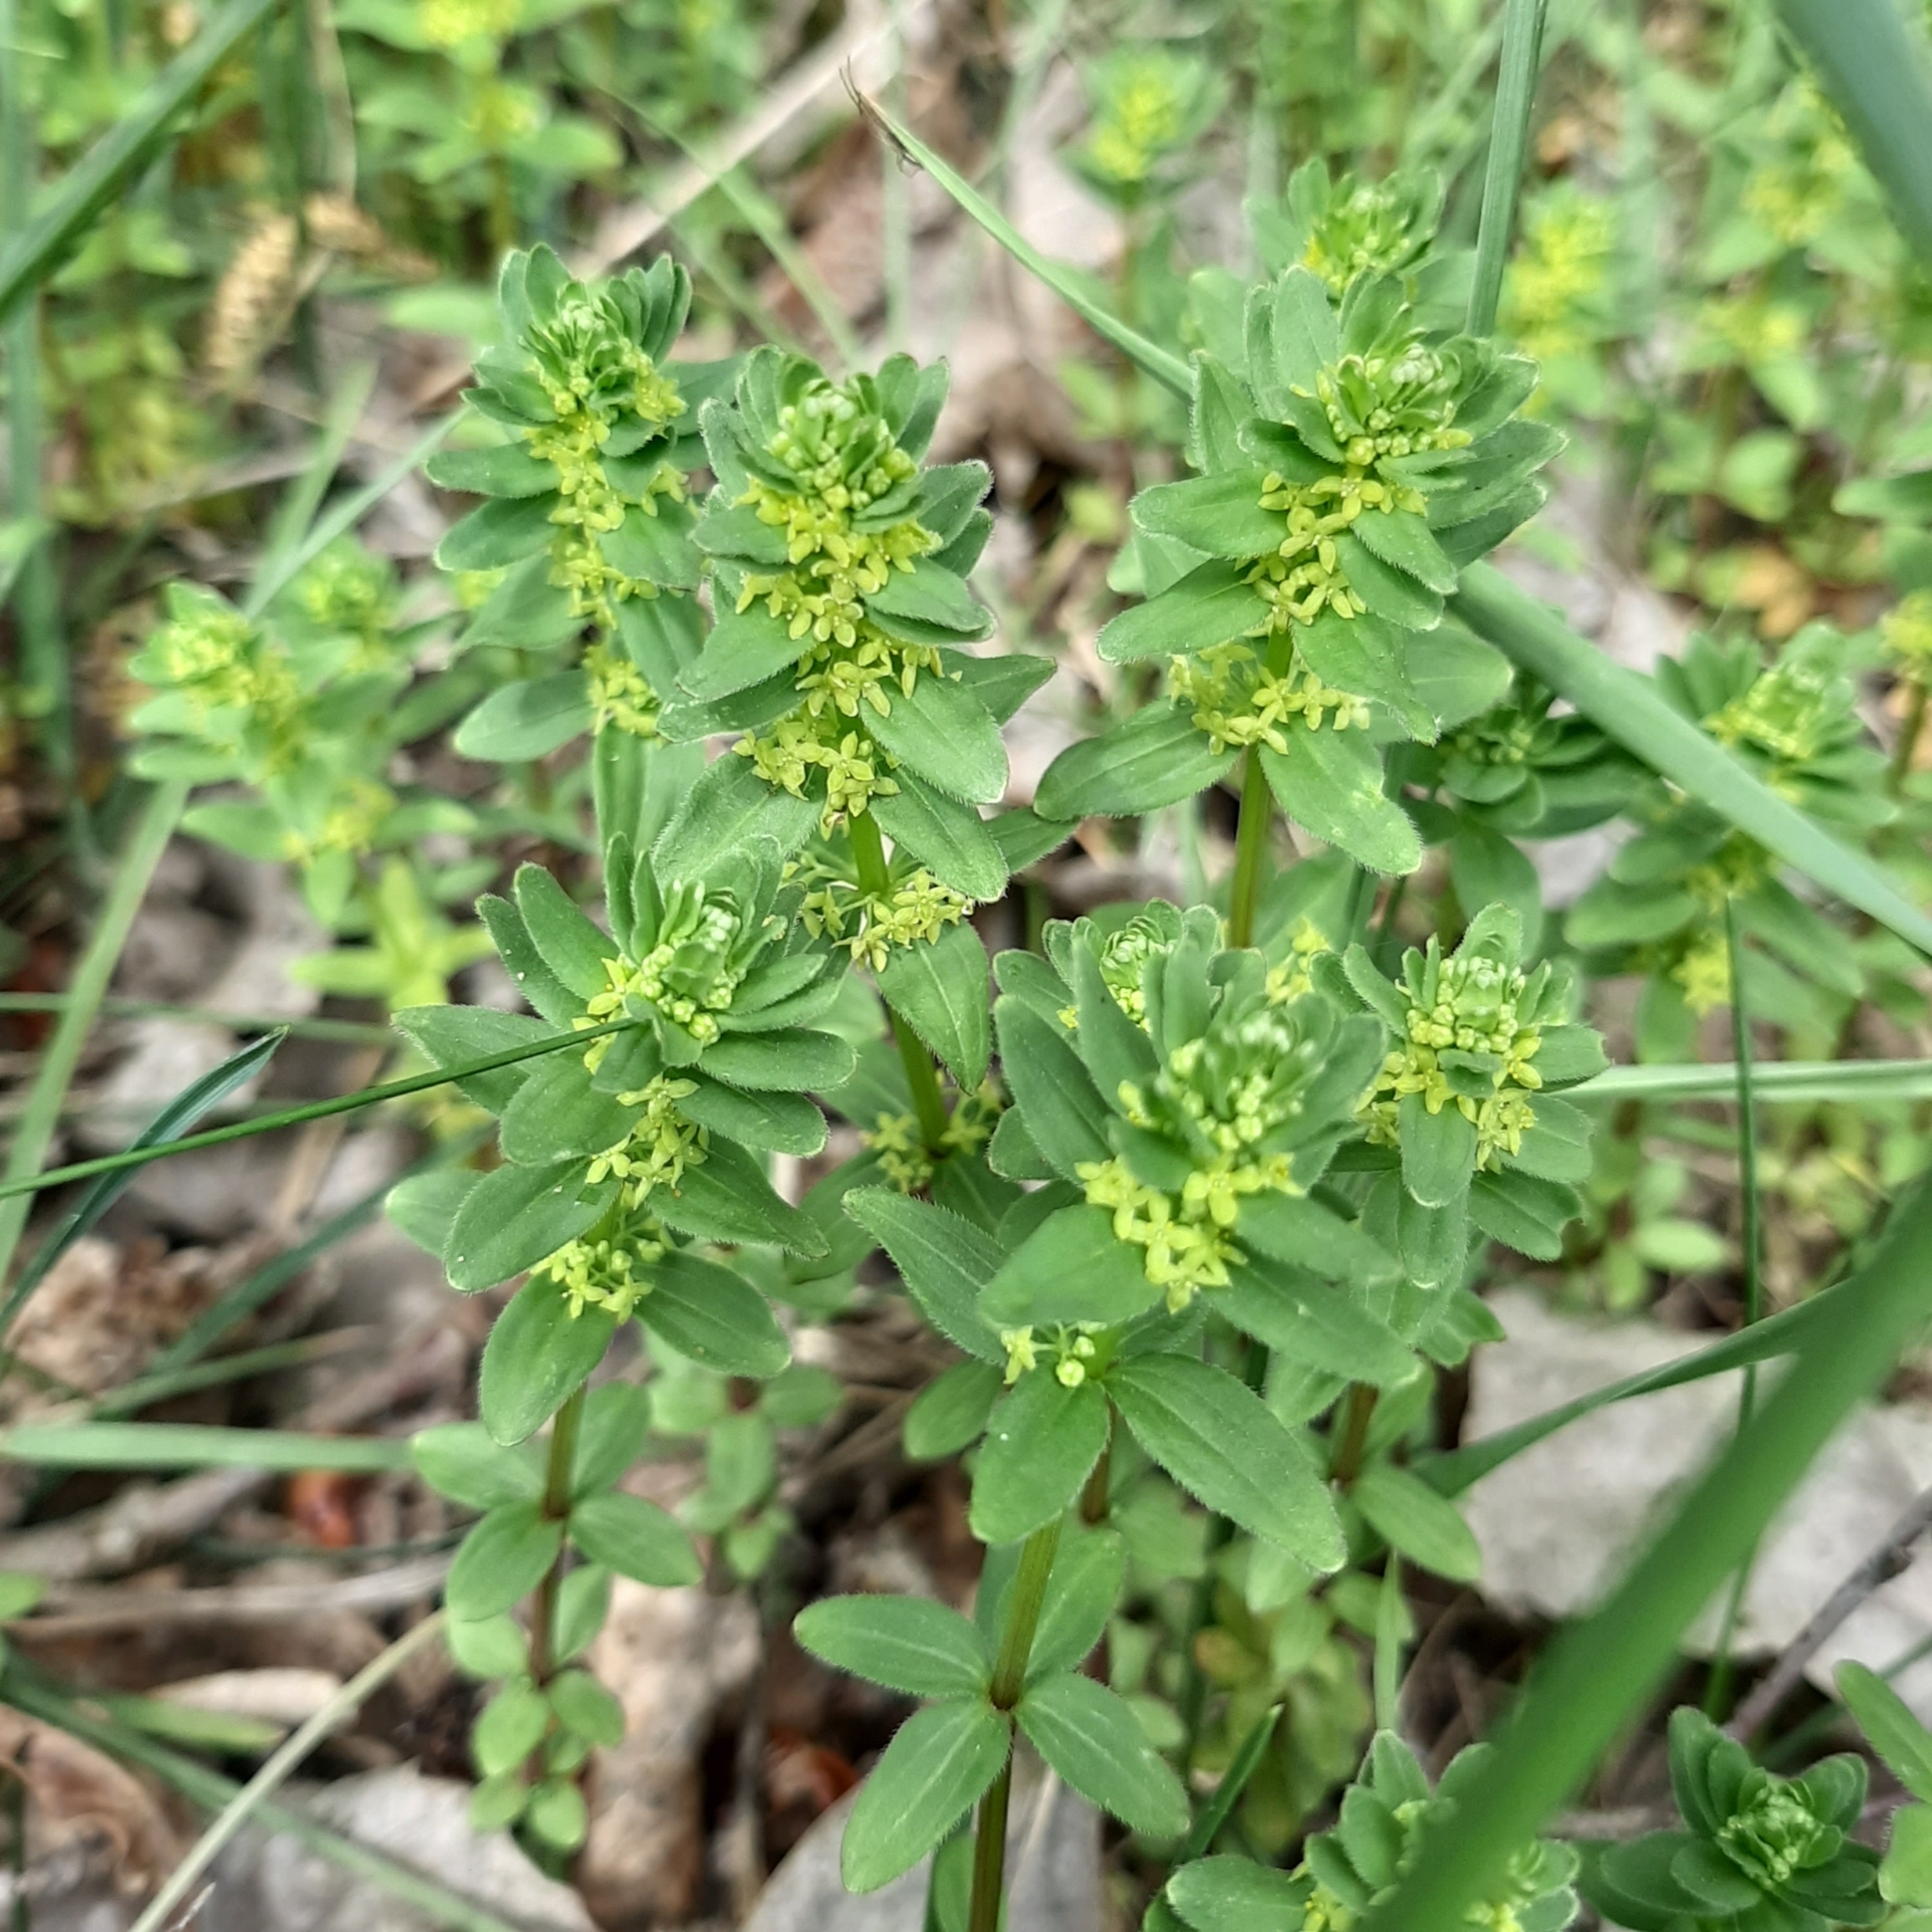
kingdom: Plantae
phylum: Tracheophyta
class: Magnoliopsida
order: Gentianales
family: Rubiaceae
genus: Cruciata
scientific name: Cruciata glabra
